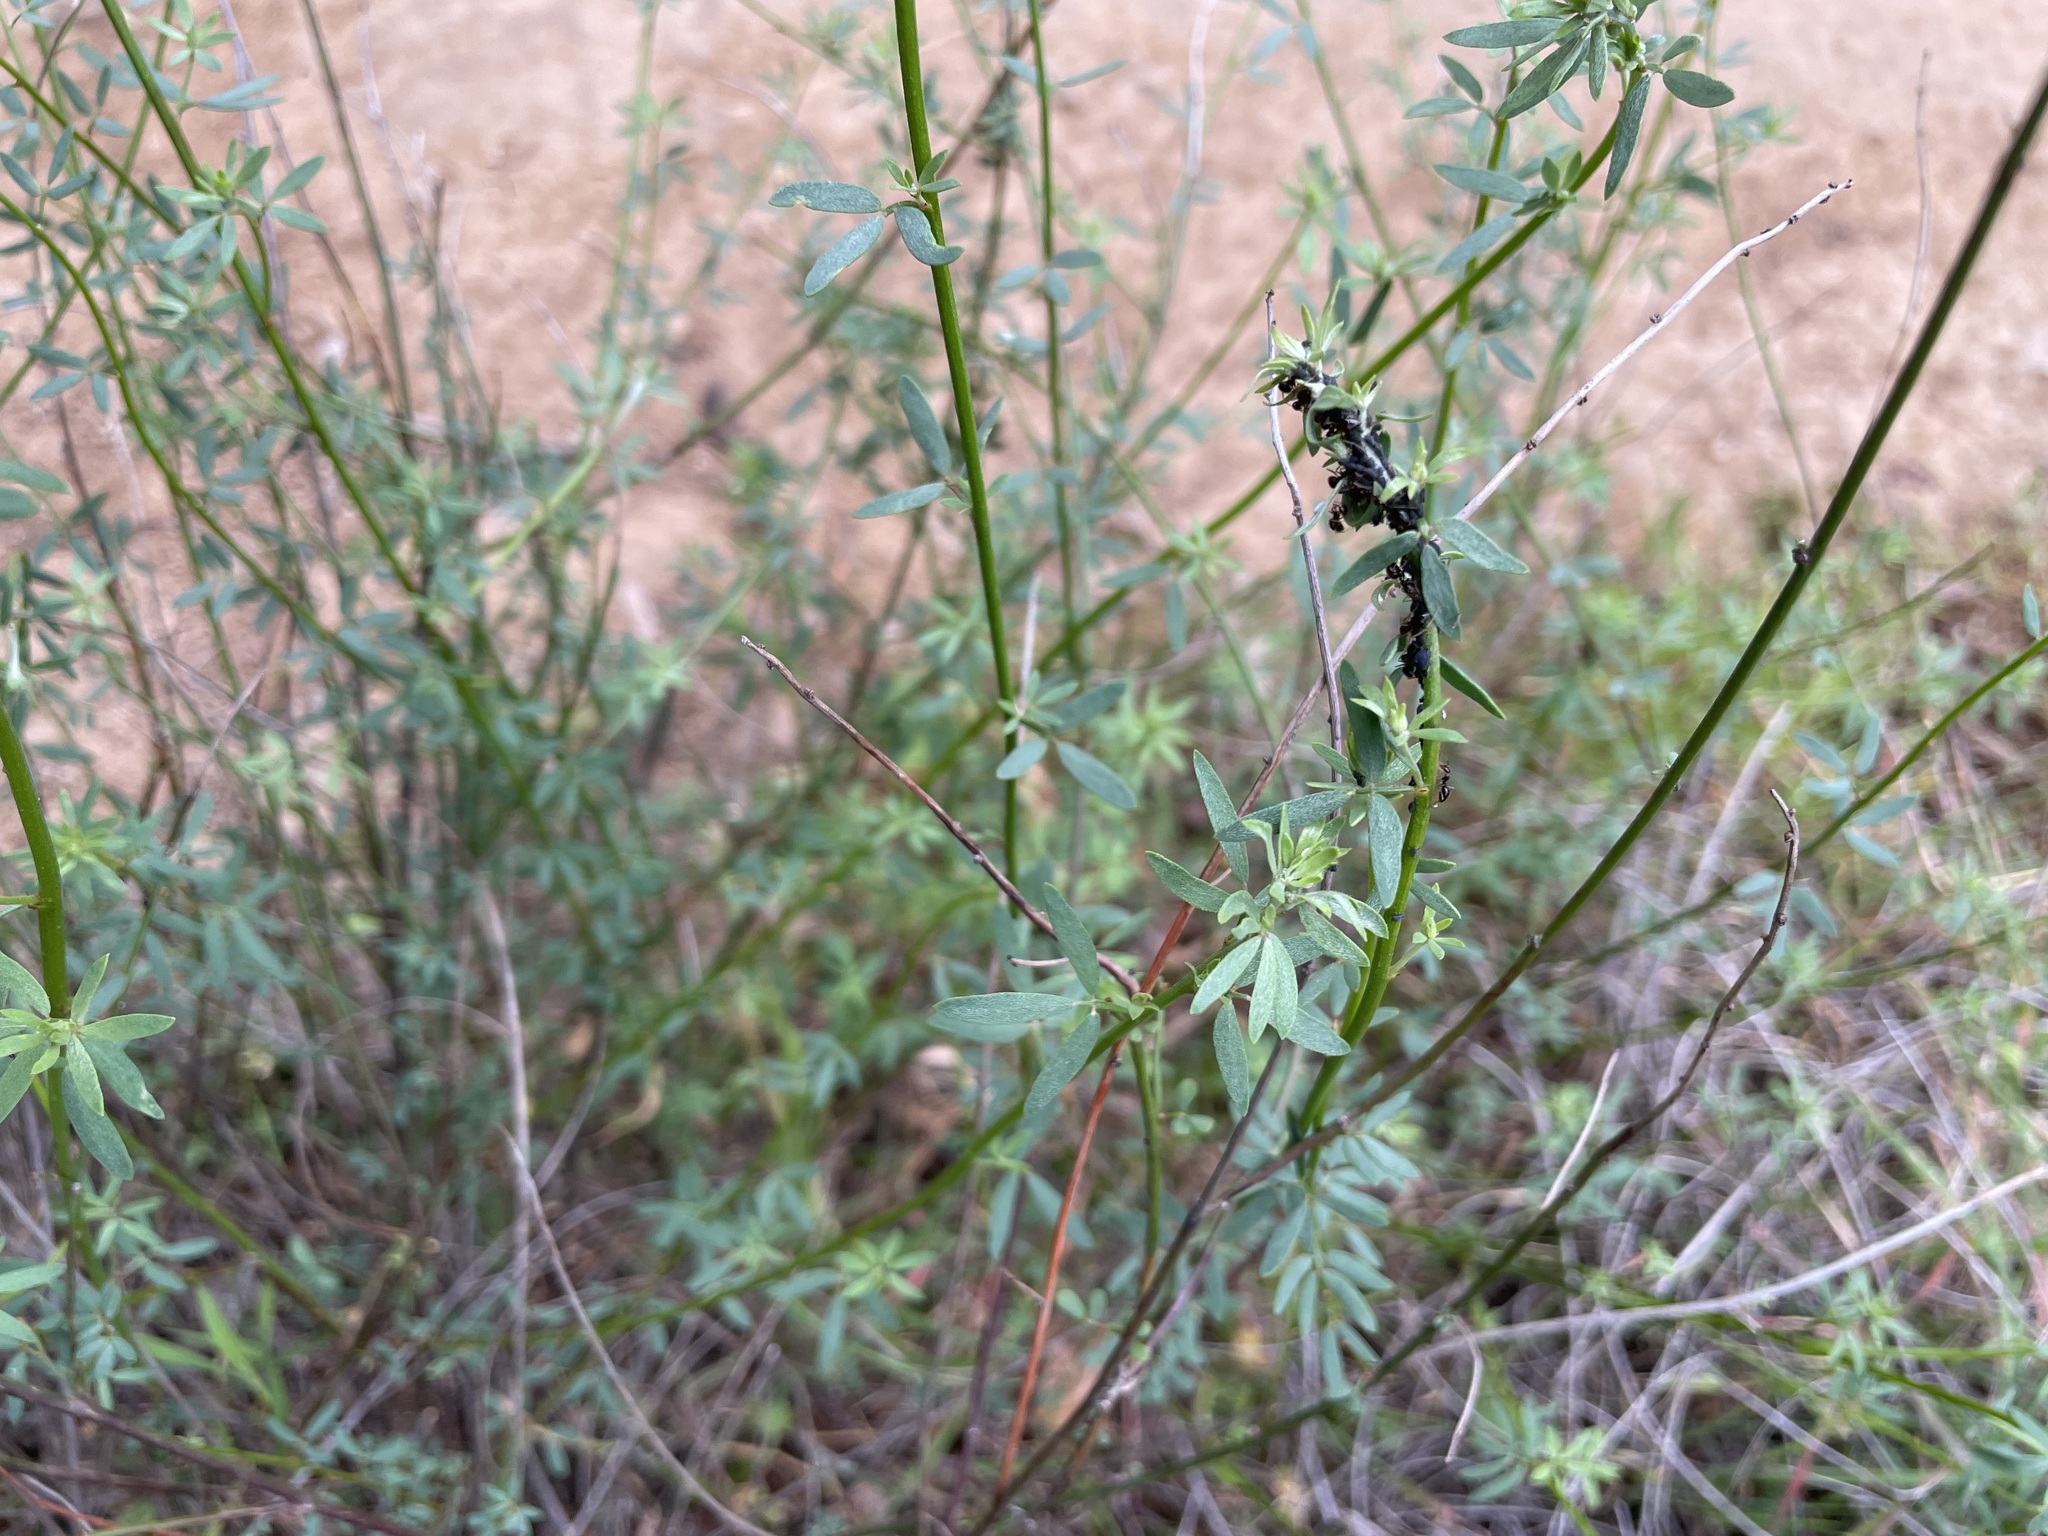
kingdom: Plantae
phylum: Tracheophyta
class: Magnoliopsida
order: Fabales
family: Fabaceae
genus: Acmispon
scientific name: Acmispon glaber
